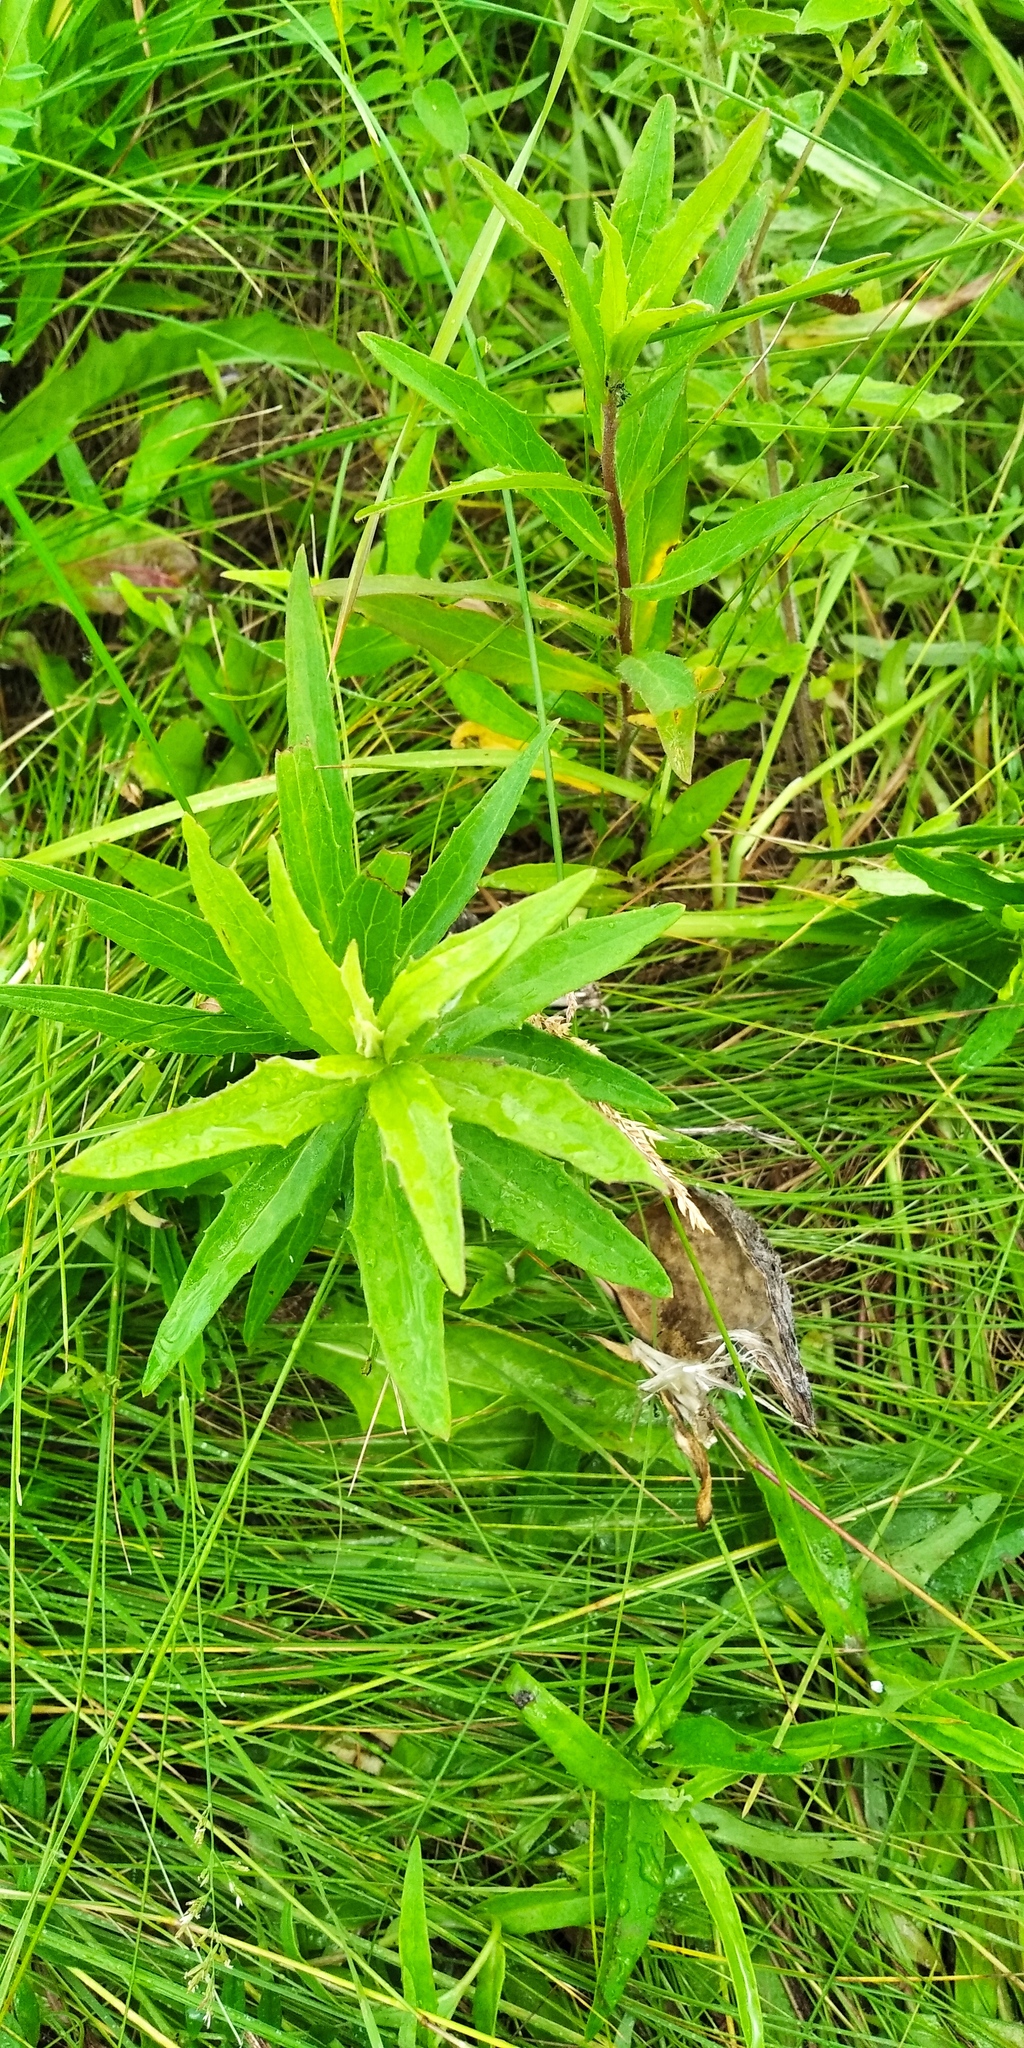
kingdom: Plantae
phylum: Tracheophyta
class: Magnoliopsida
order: Asterales
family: Asteraceae
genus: Hieracium
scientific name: Hieracium umbellatum
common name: Northern hawkweed
